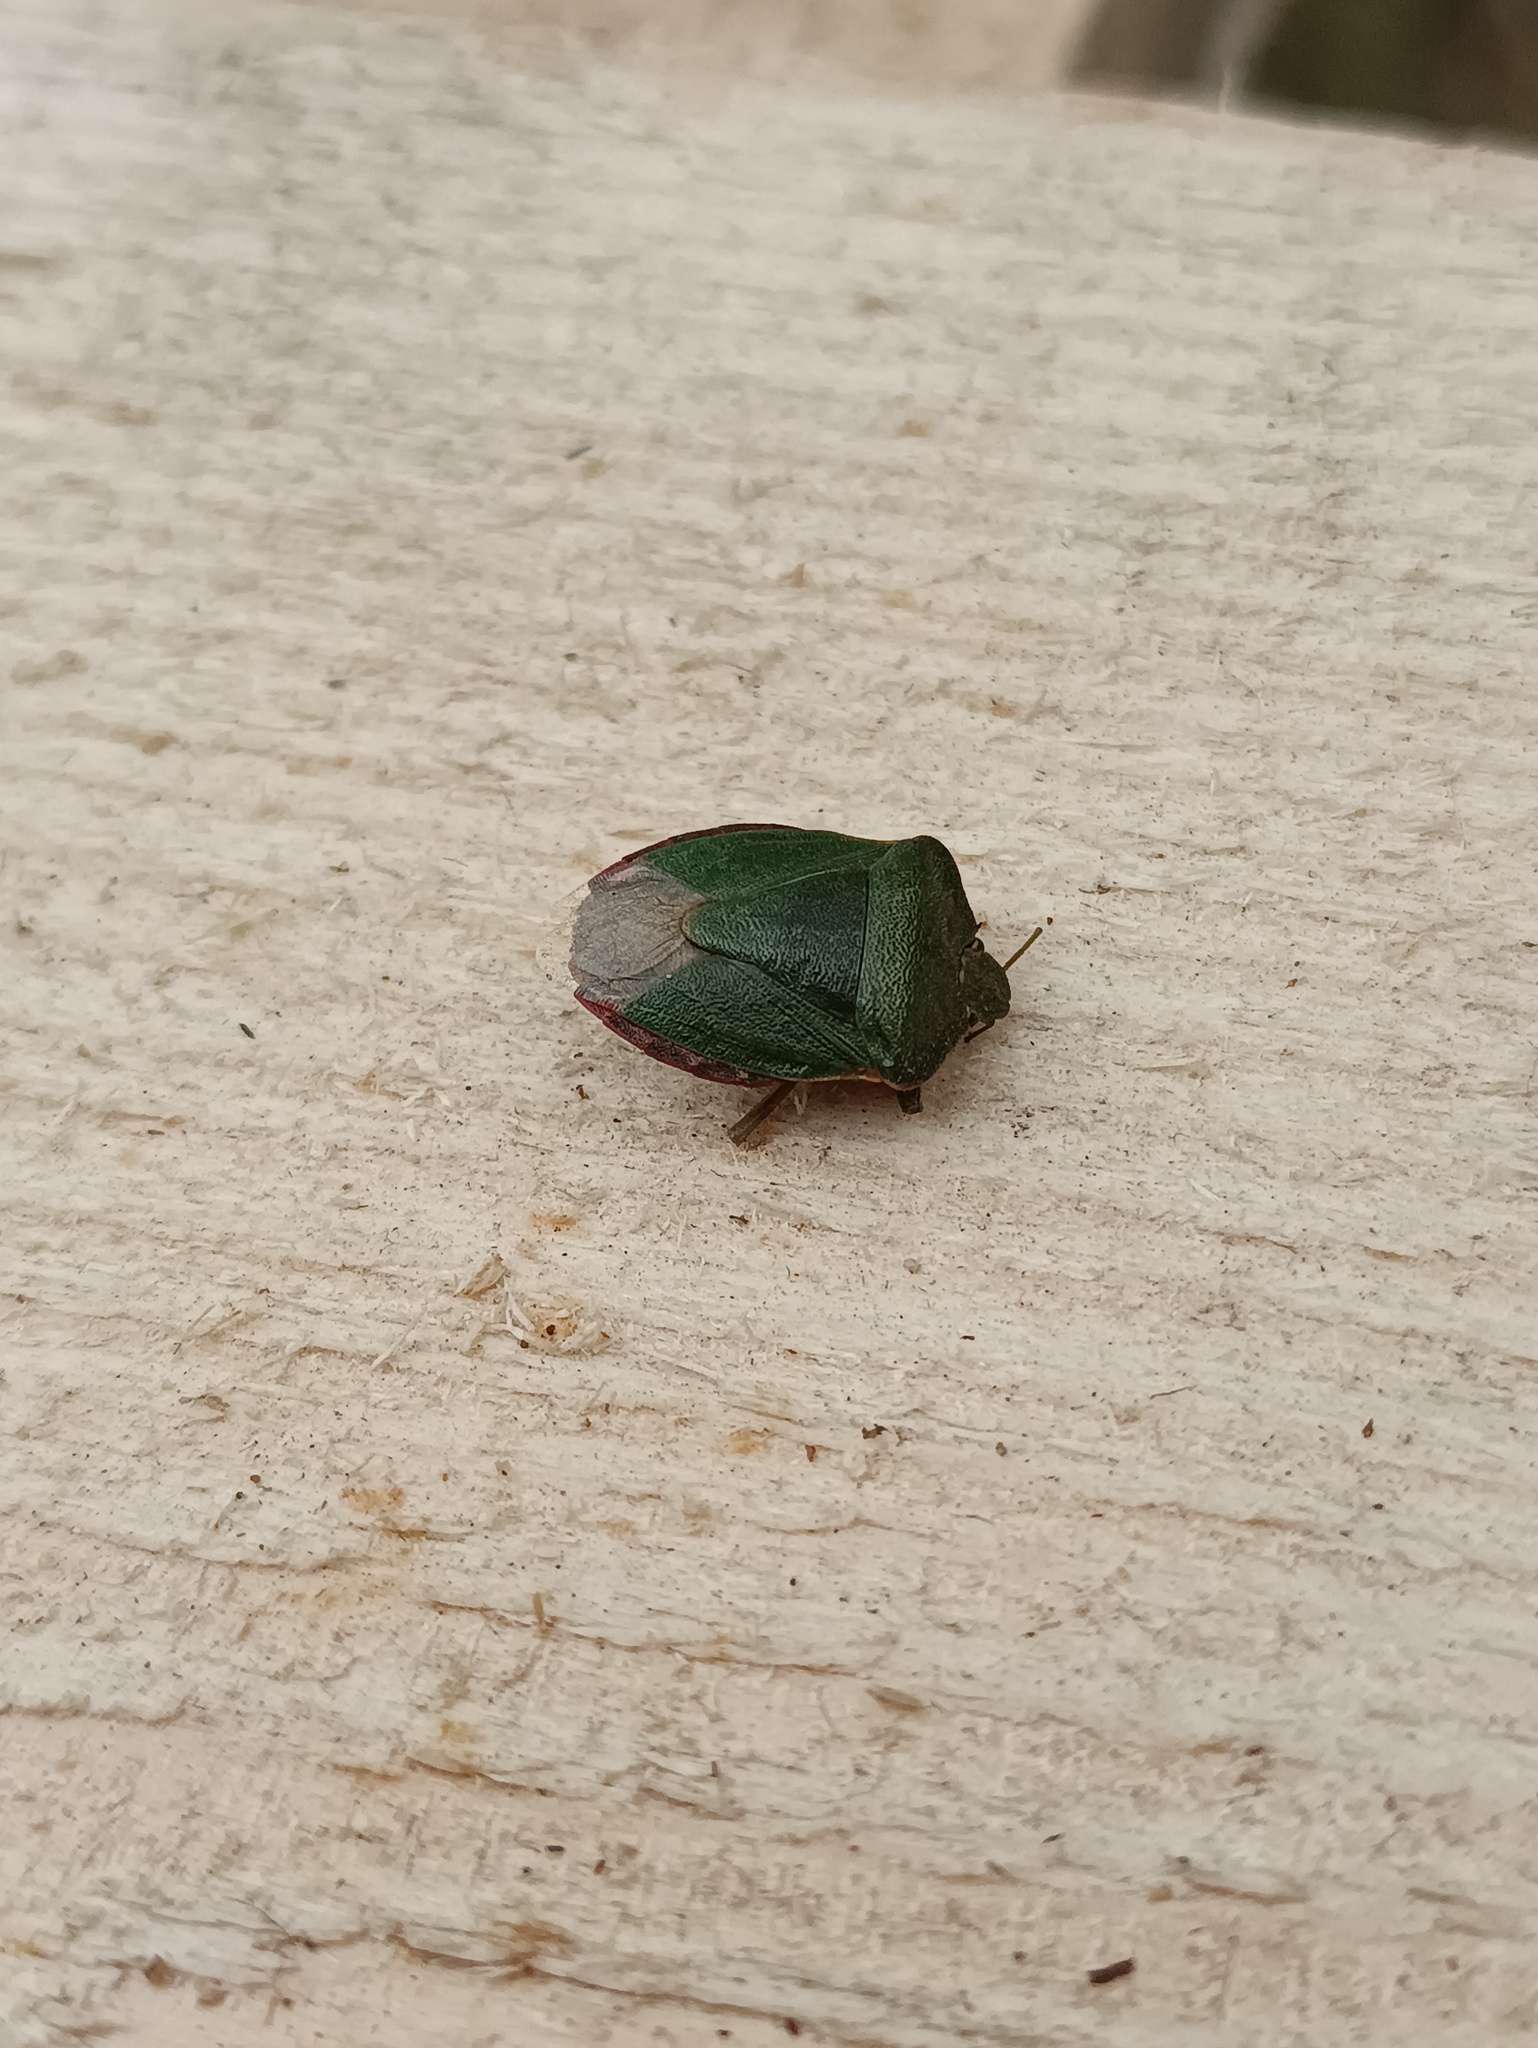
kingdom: Animalia
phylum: Arthropoda
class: Insecta
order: Hemiptera
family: Pentatomidae
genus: Palomena
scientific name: Palomena prasina
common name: Green shieldbug
